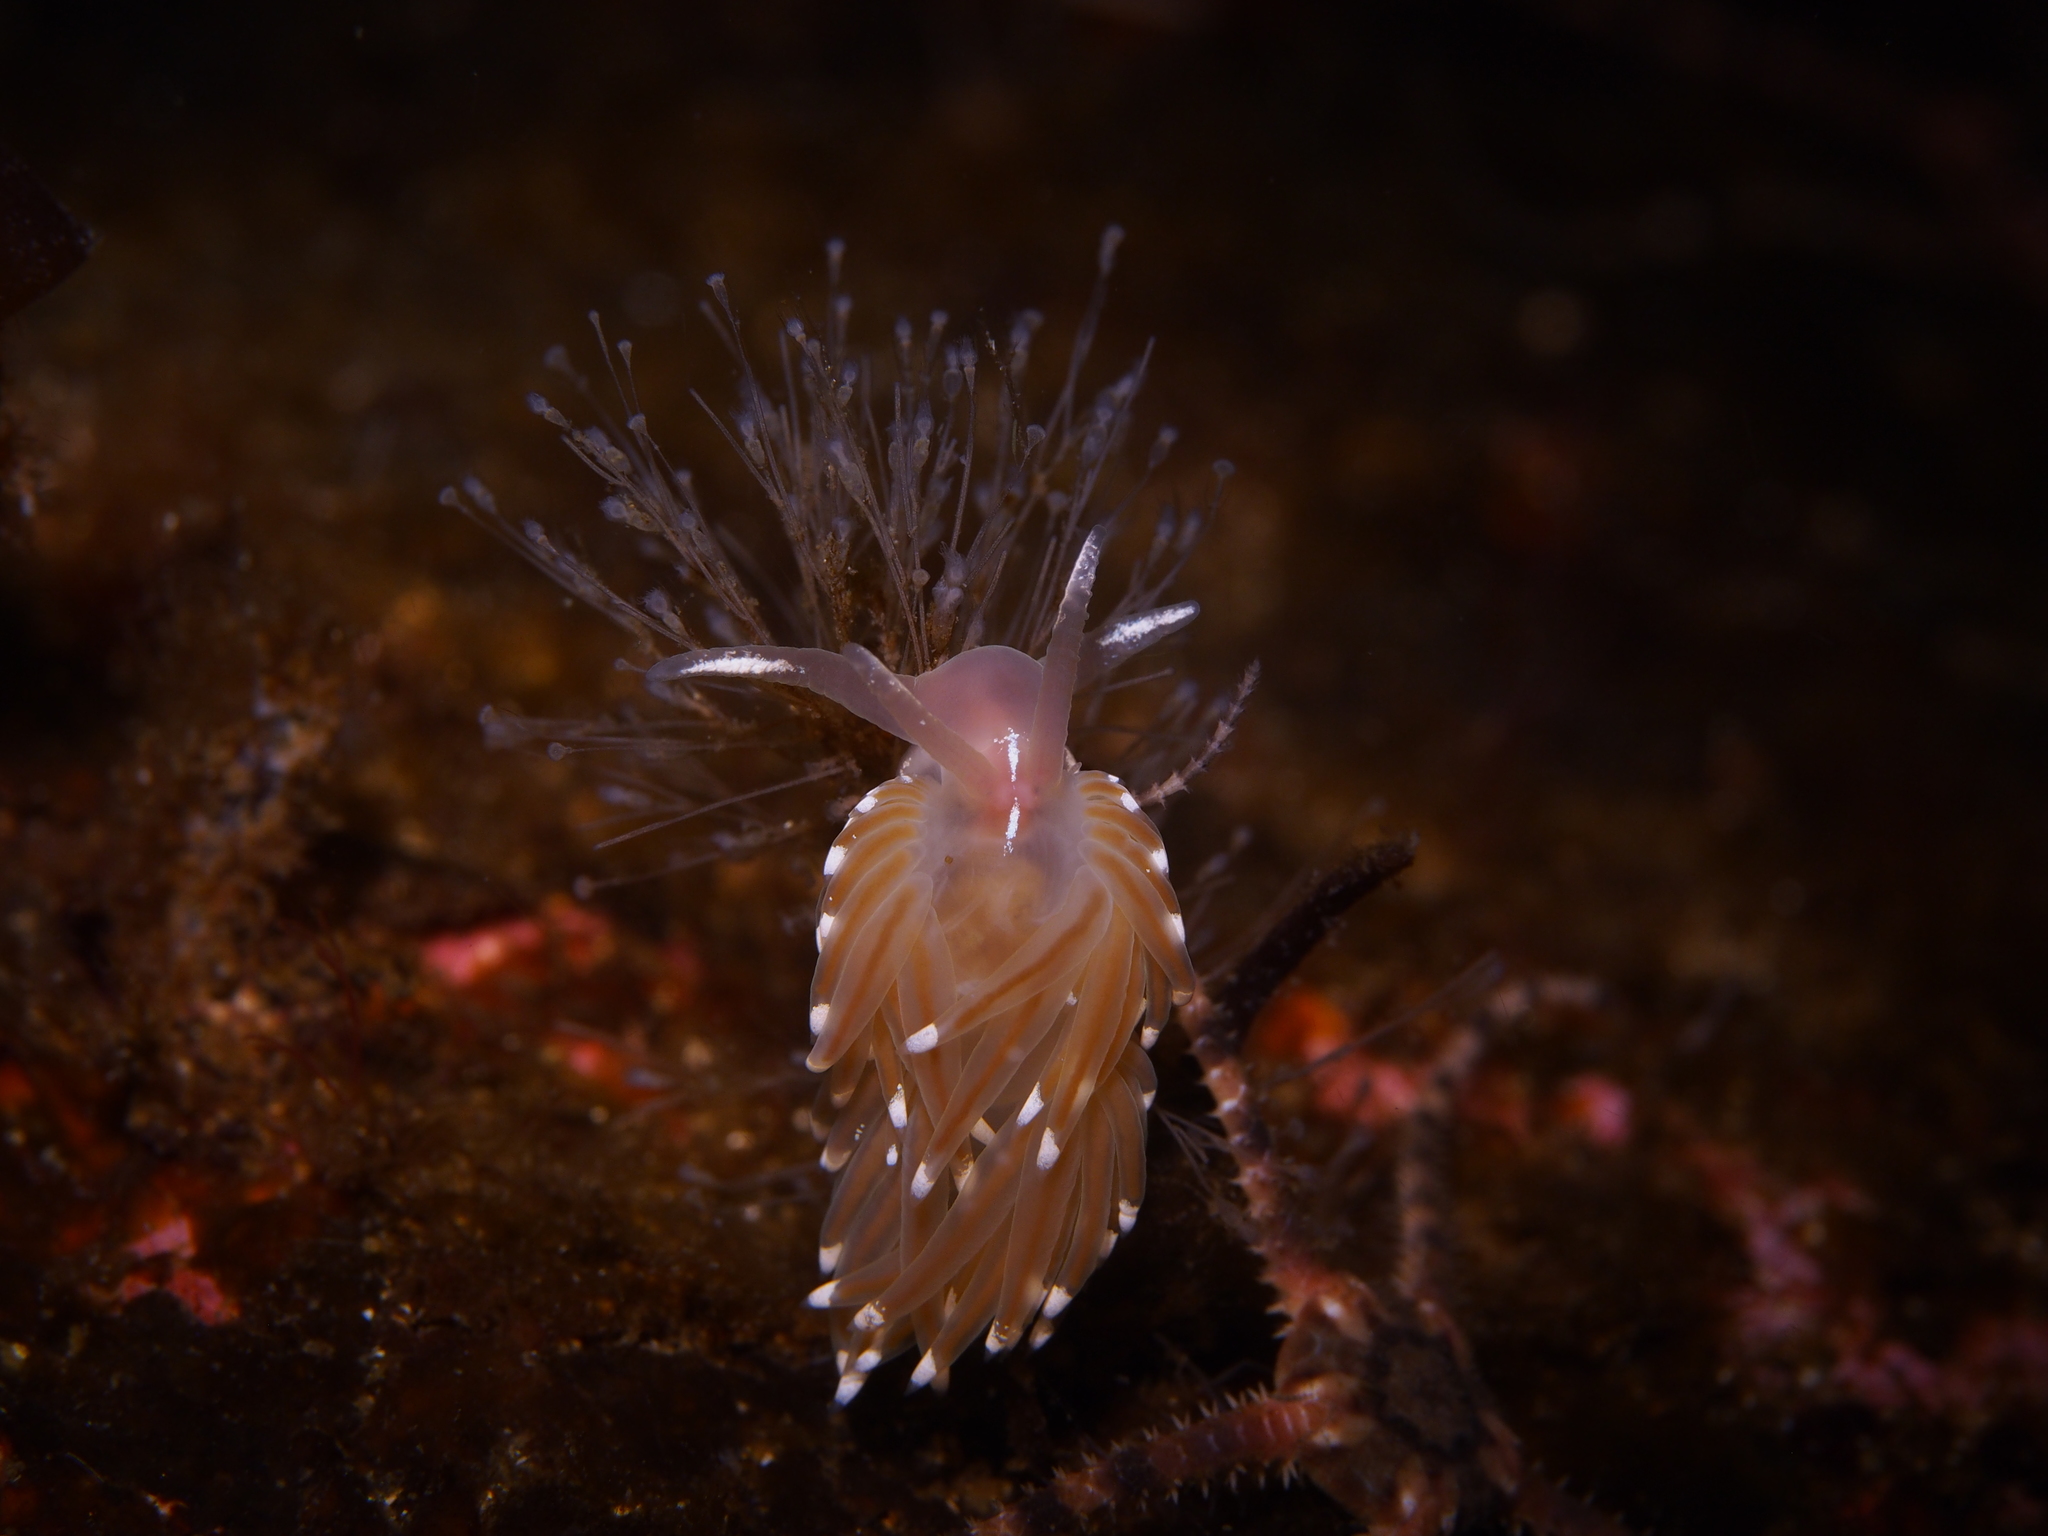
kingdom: Animalia
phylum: Mollusca
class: Gastropoda
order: Nudibranchia
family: Facelinidae
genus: Facelina
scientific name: Facelina bostoniensis
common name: Boston facelina
